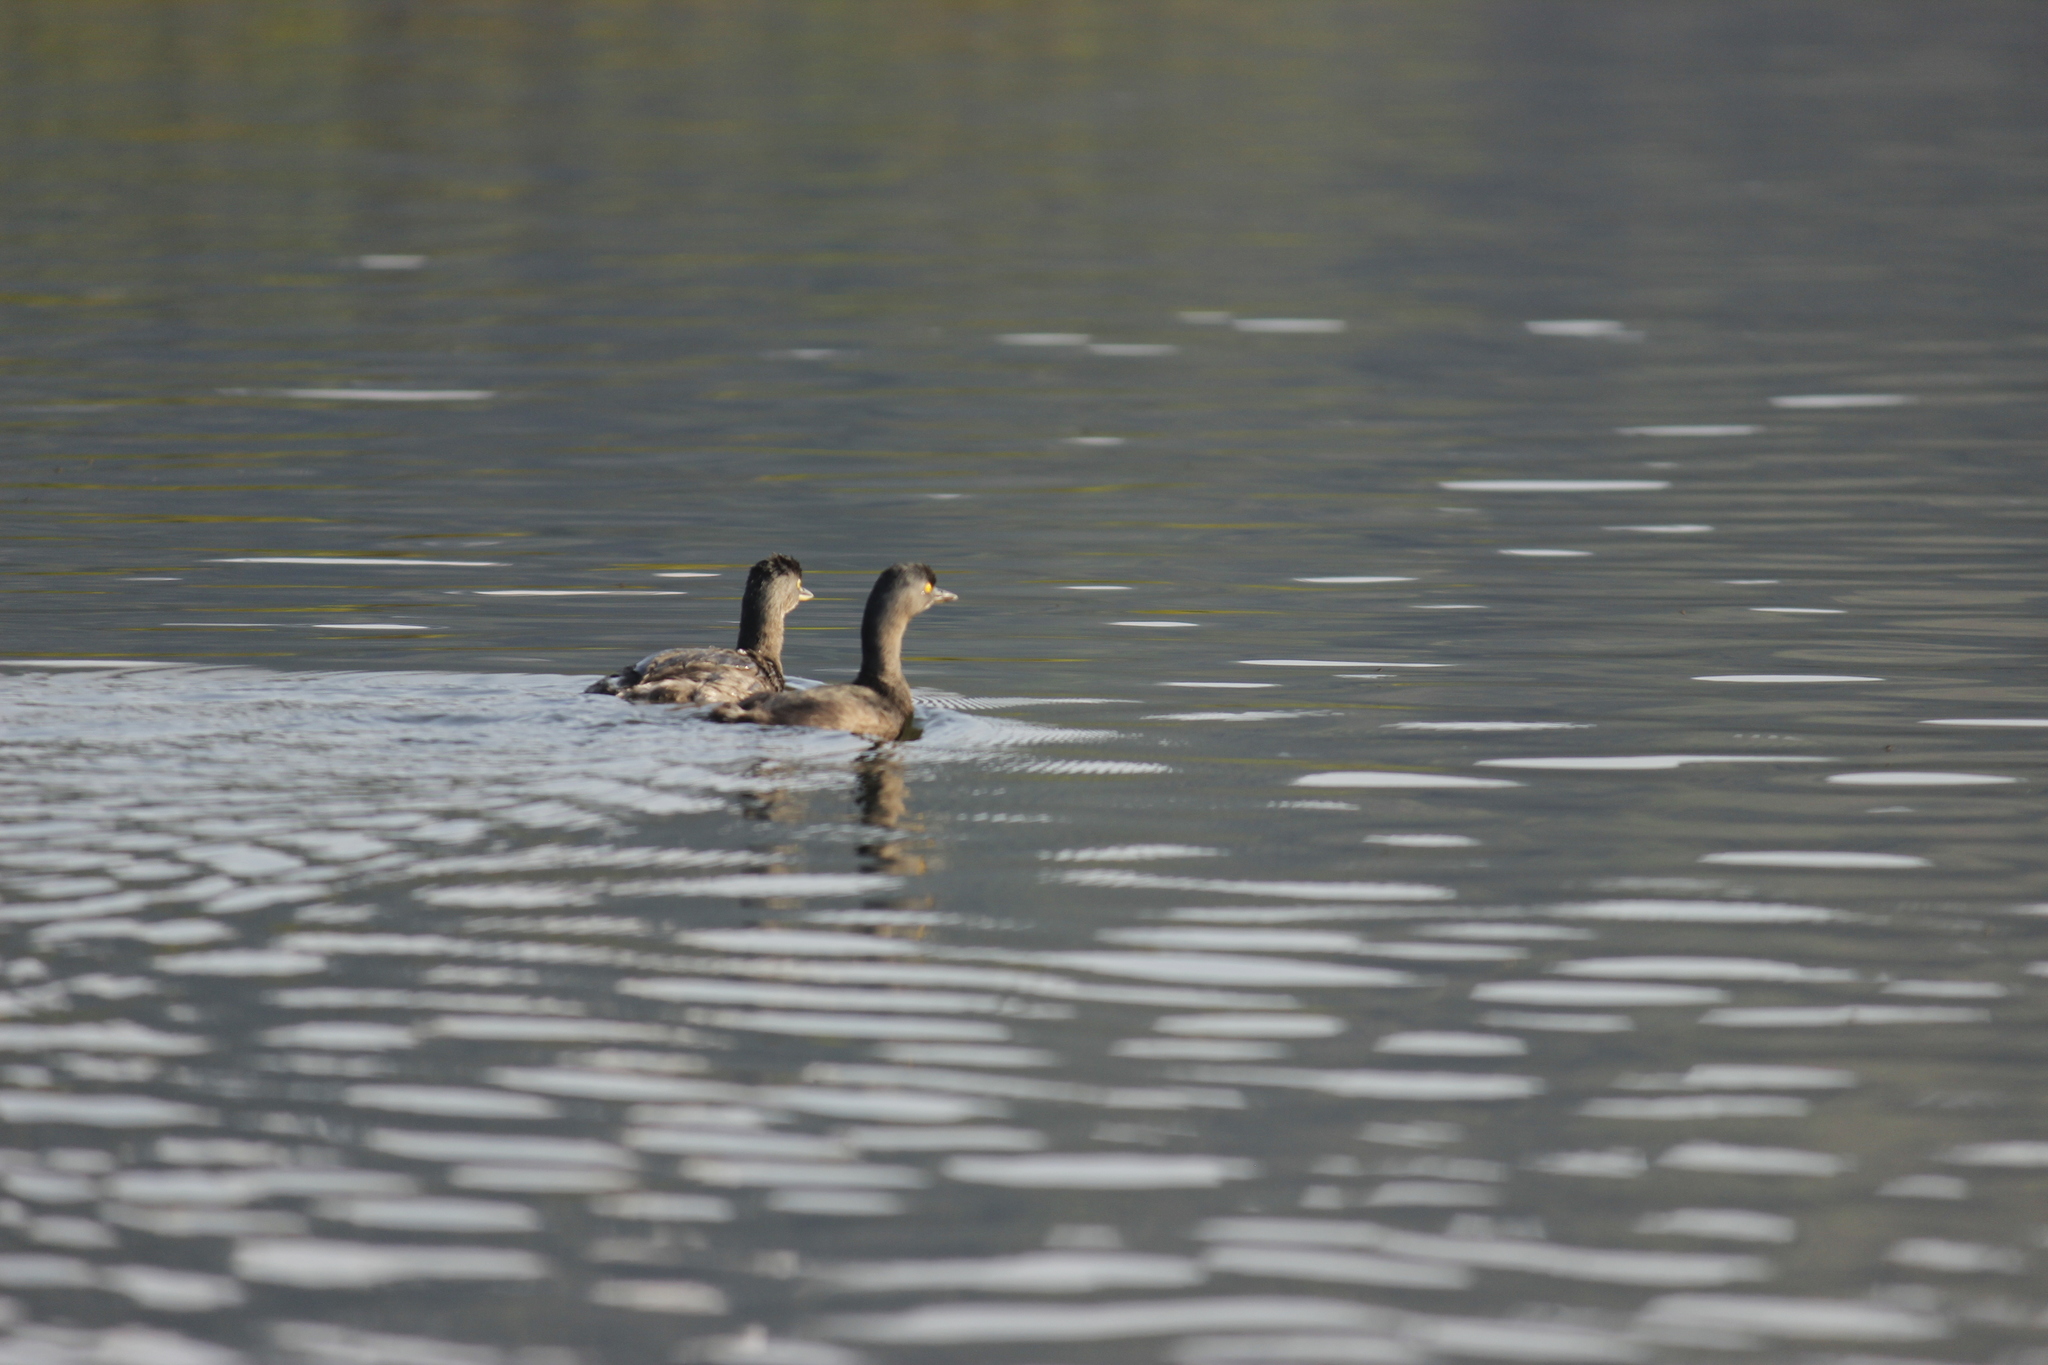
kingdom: Animalia
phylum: Chordata
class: Aves
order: Podicipediformes
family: Podicipedidae
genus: Tachybaptus
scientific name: Tachybaptus dominicus
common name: Least grebe
